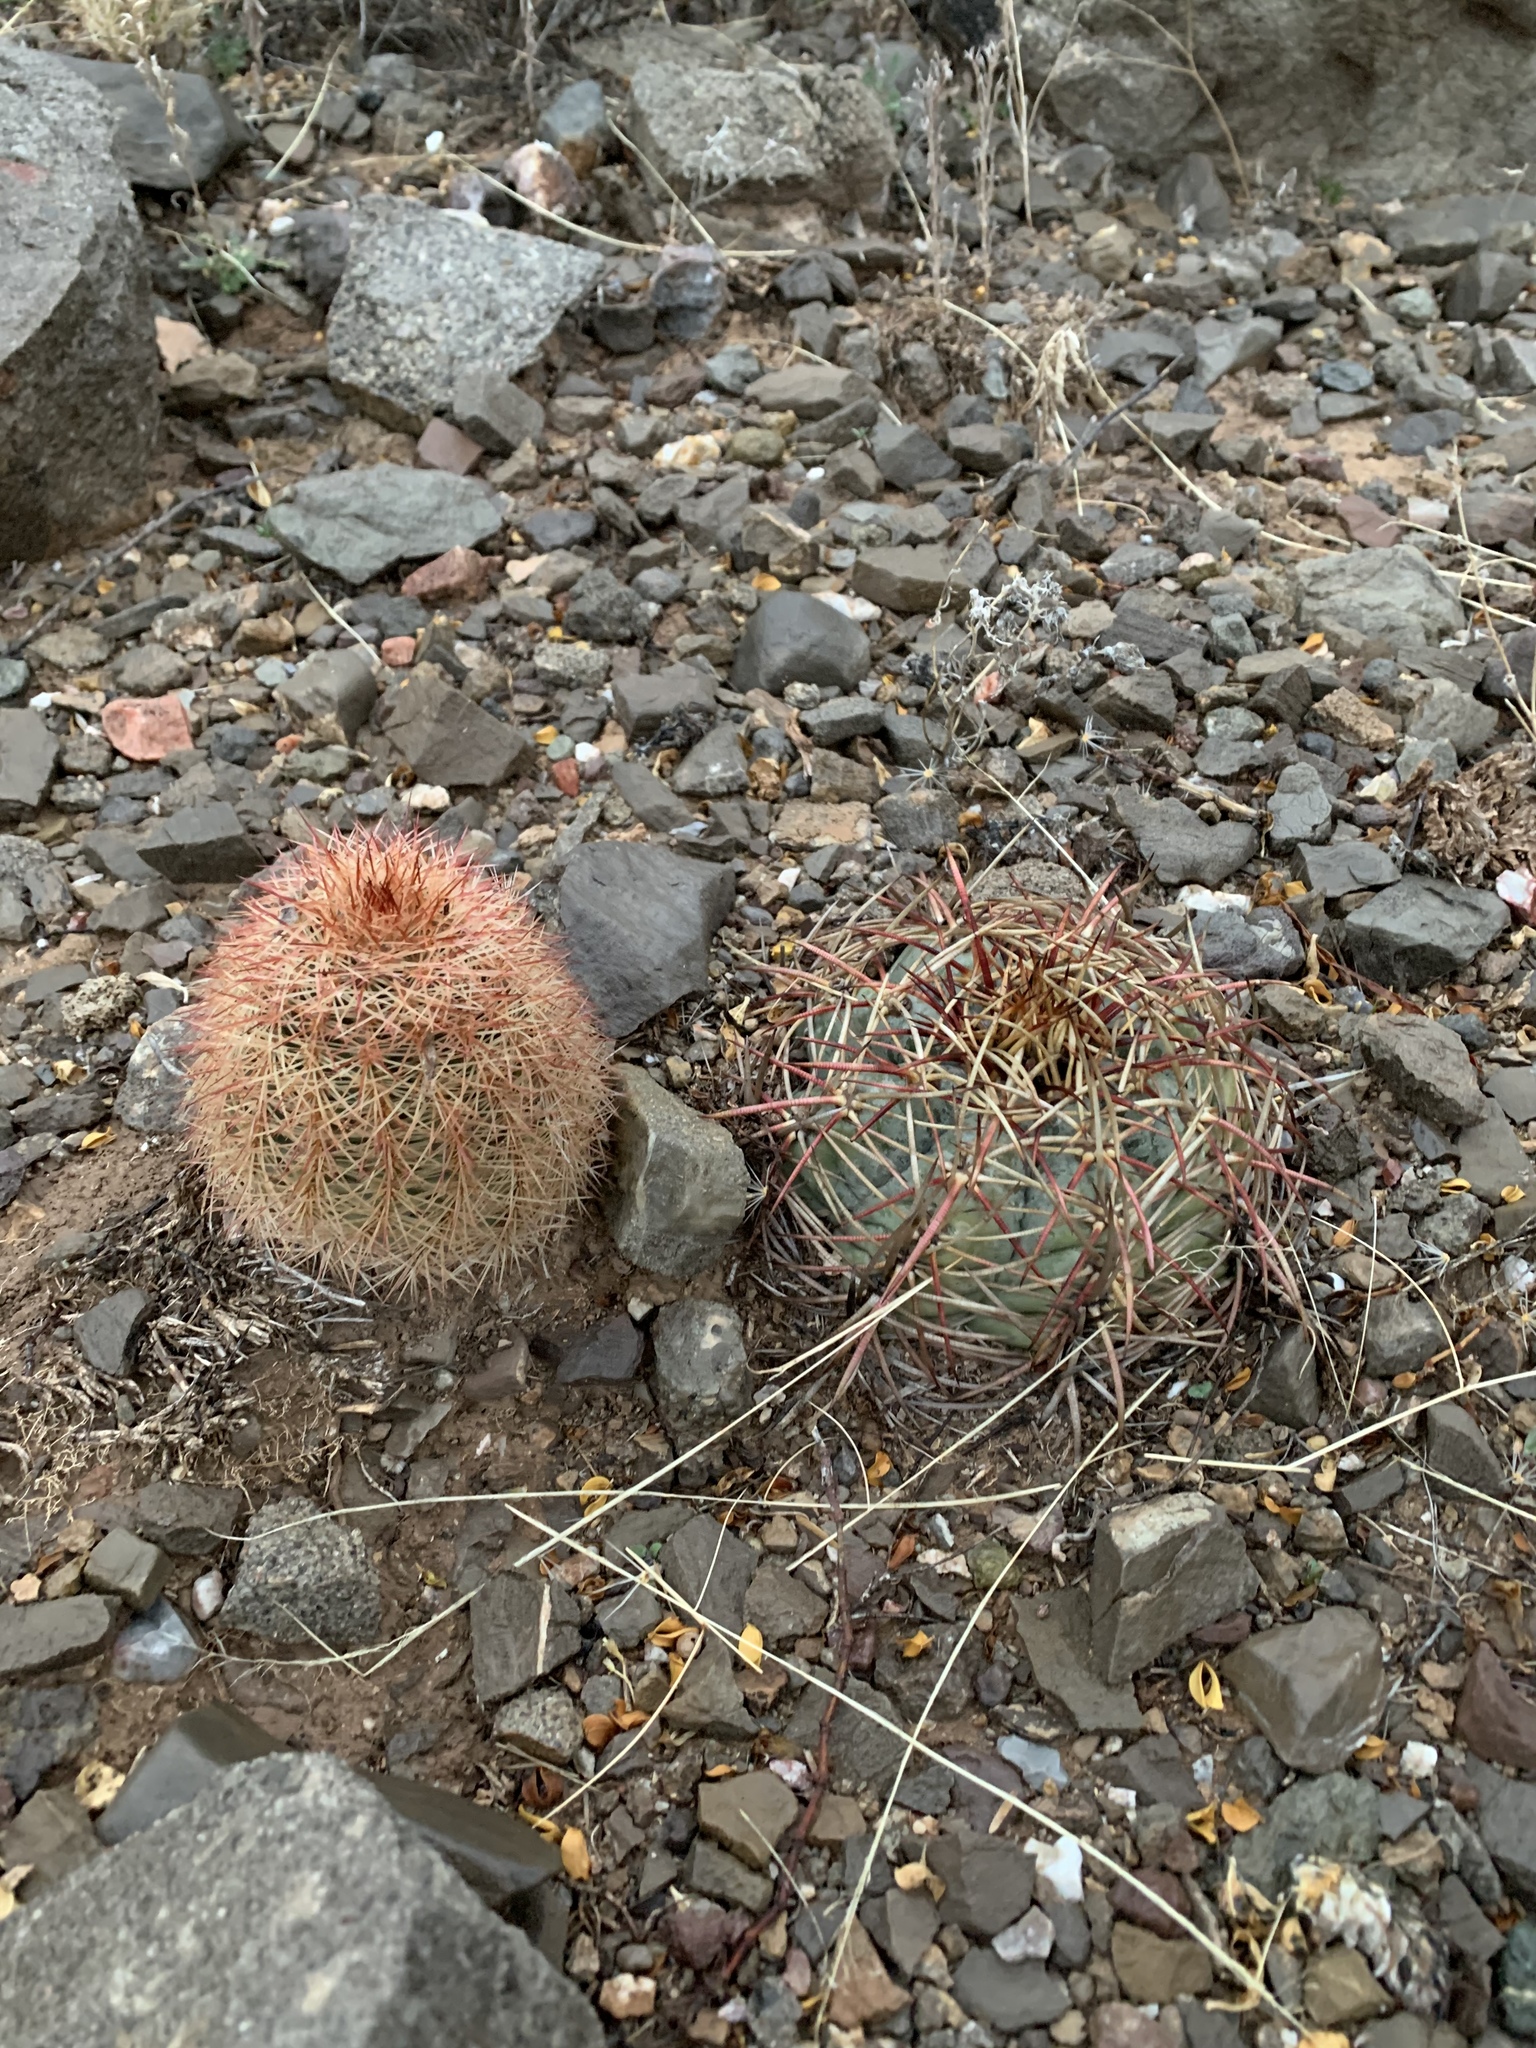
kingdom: Plantae
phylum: Tracheophyta
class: Magnoliopsida
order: Caryophyllales
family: Cactaceae
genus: Echinocactus
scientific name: Echinocactus horizonthalonius
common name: Devilshead
